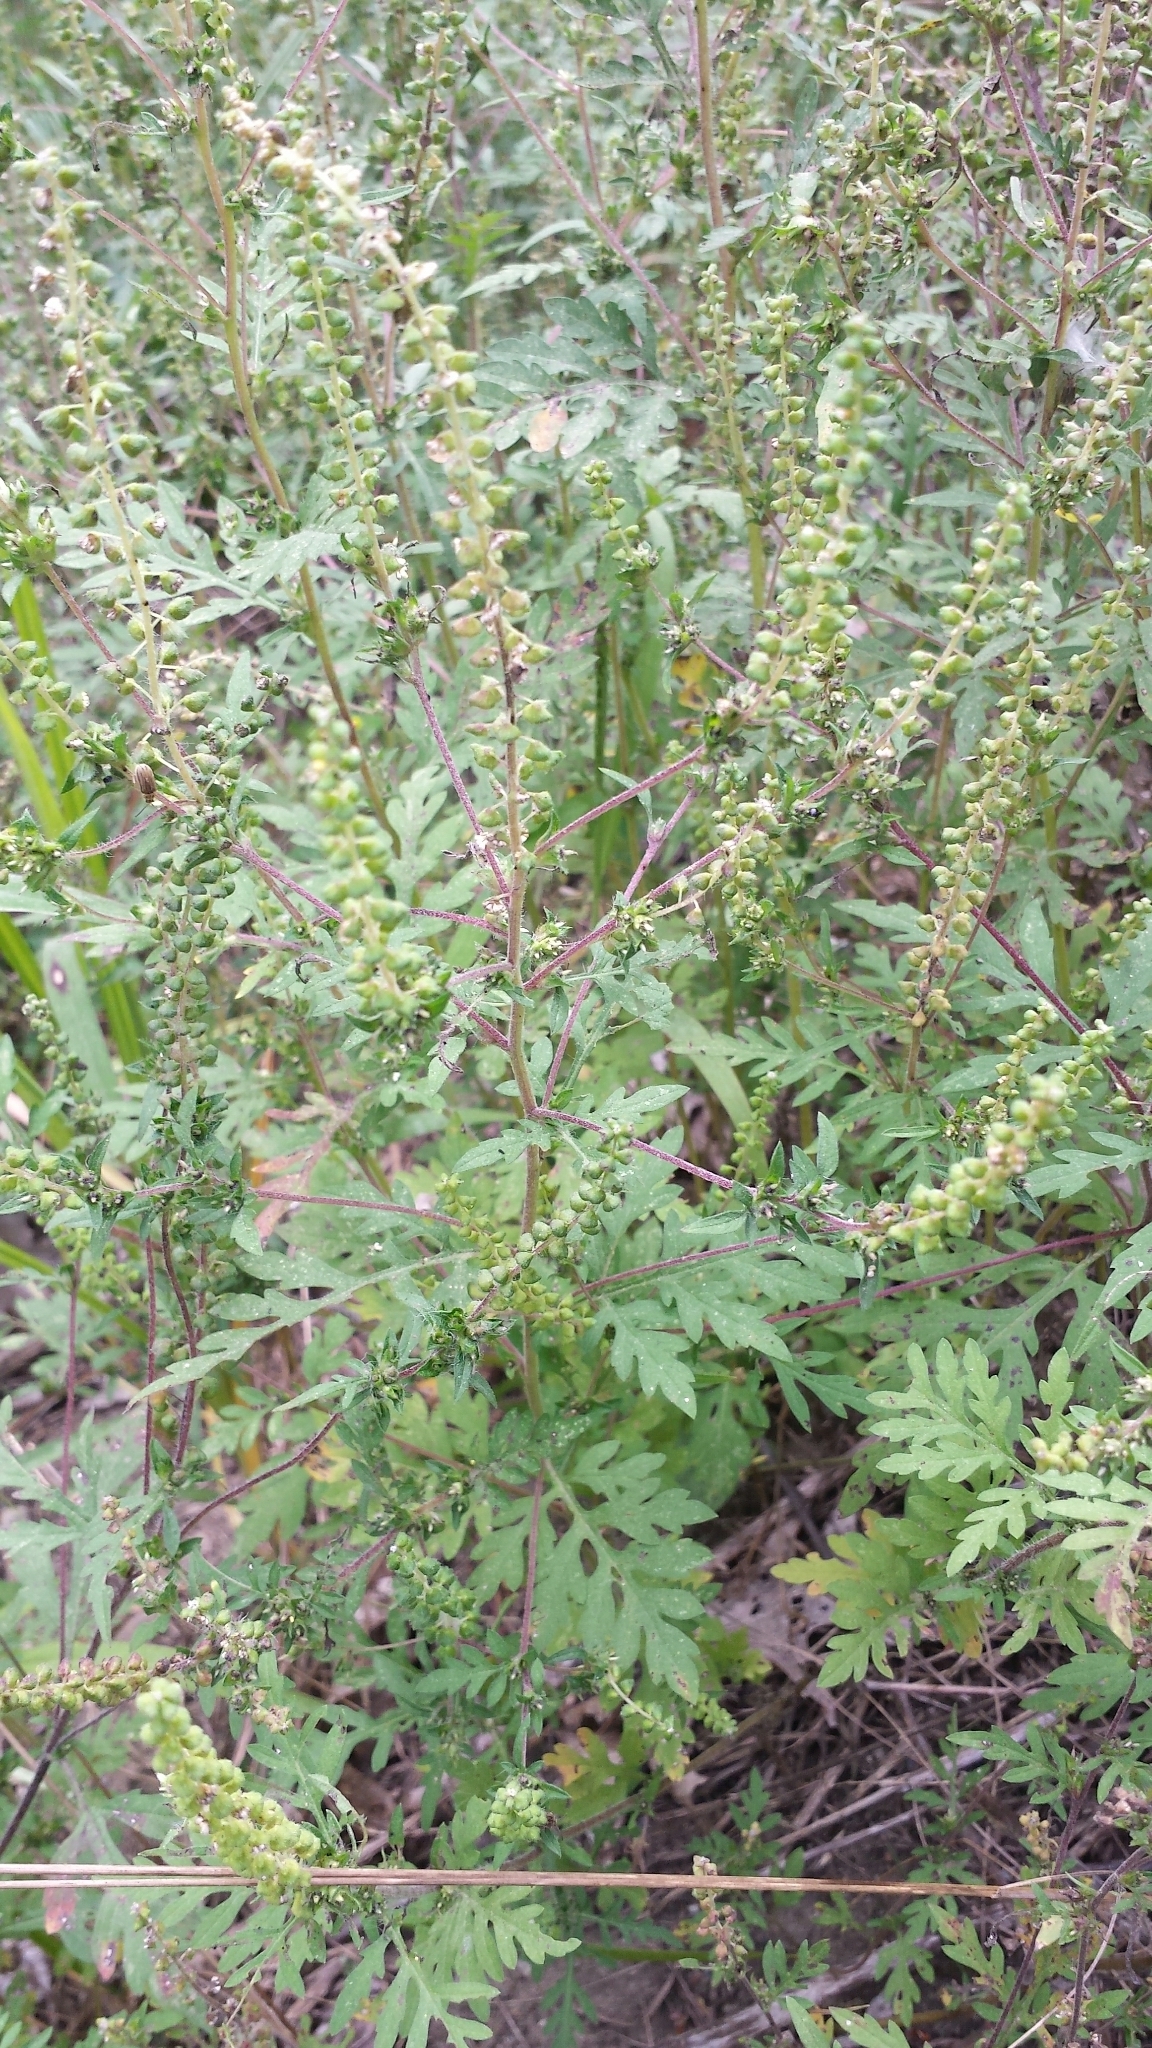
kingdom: Plantae
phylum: Tracheophyta
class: Magnoliopsida
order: Asterales
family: Asteraceae
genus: Ambrosia
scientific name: Ambrosia artemisiifolia
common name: Annual ragweed
